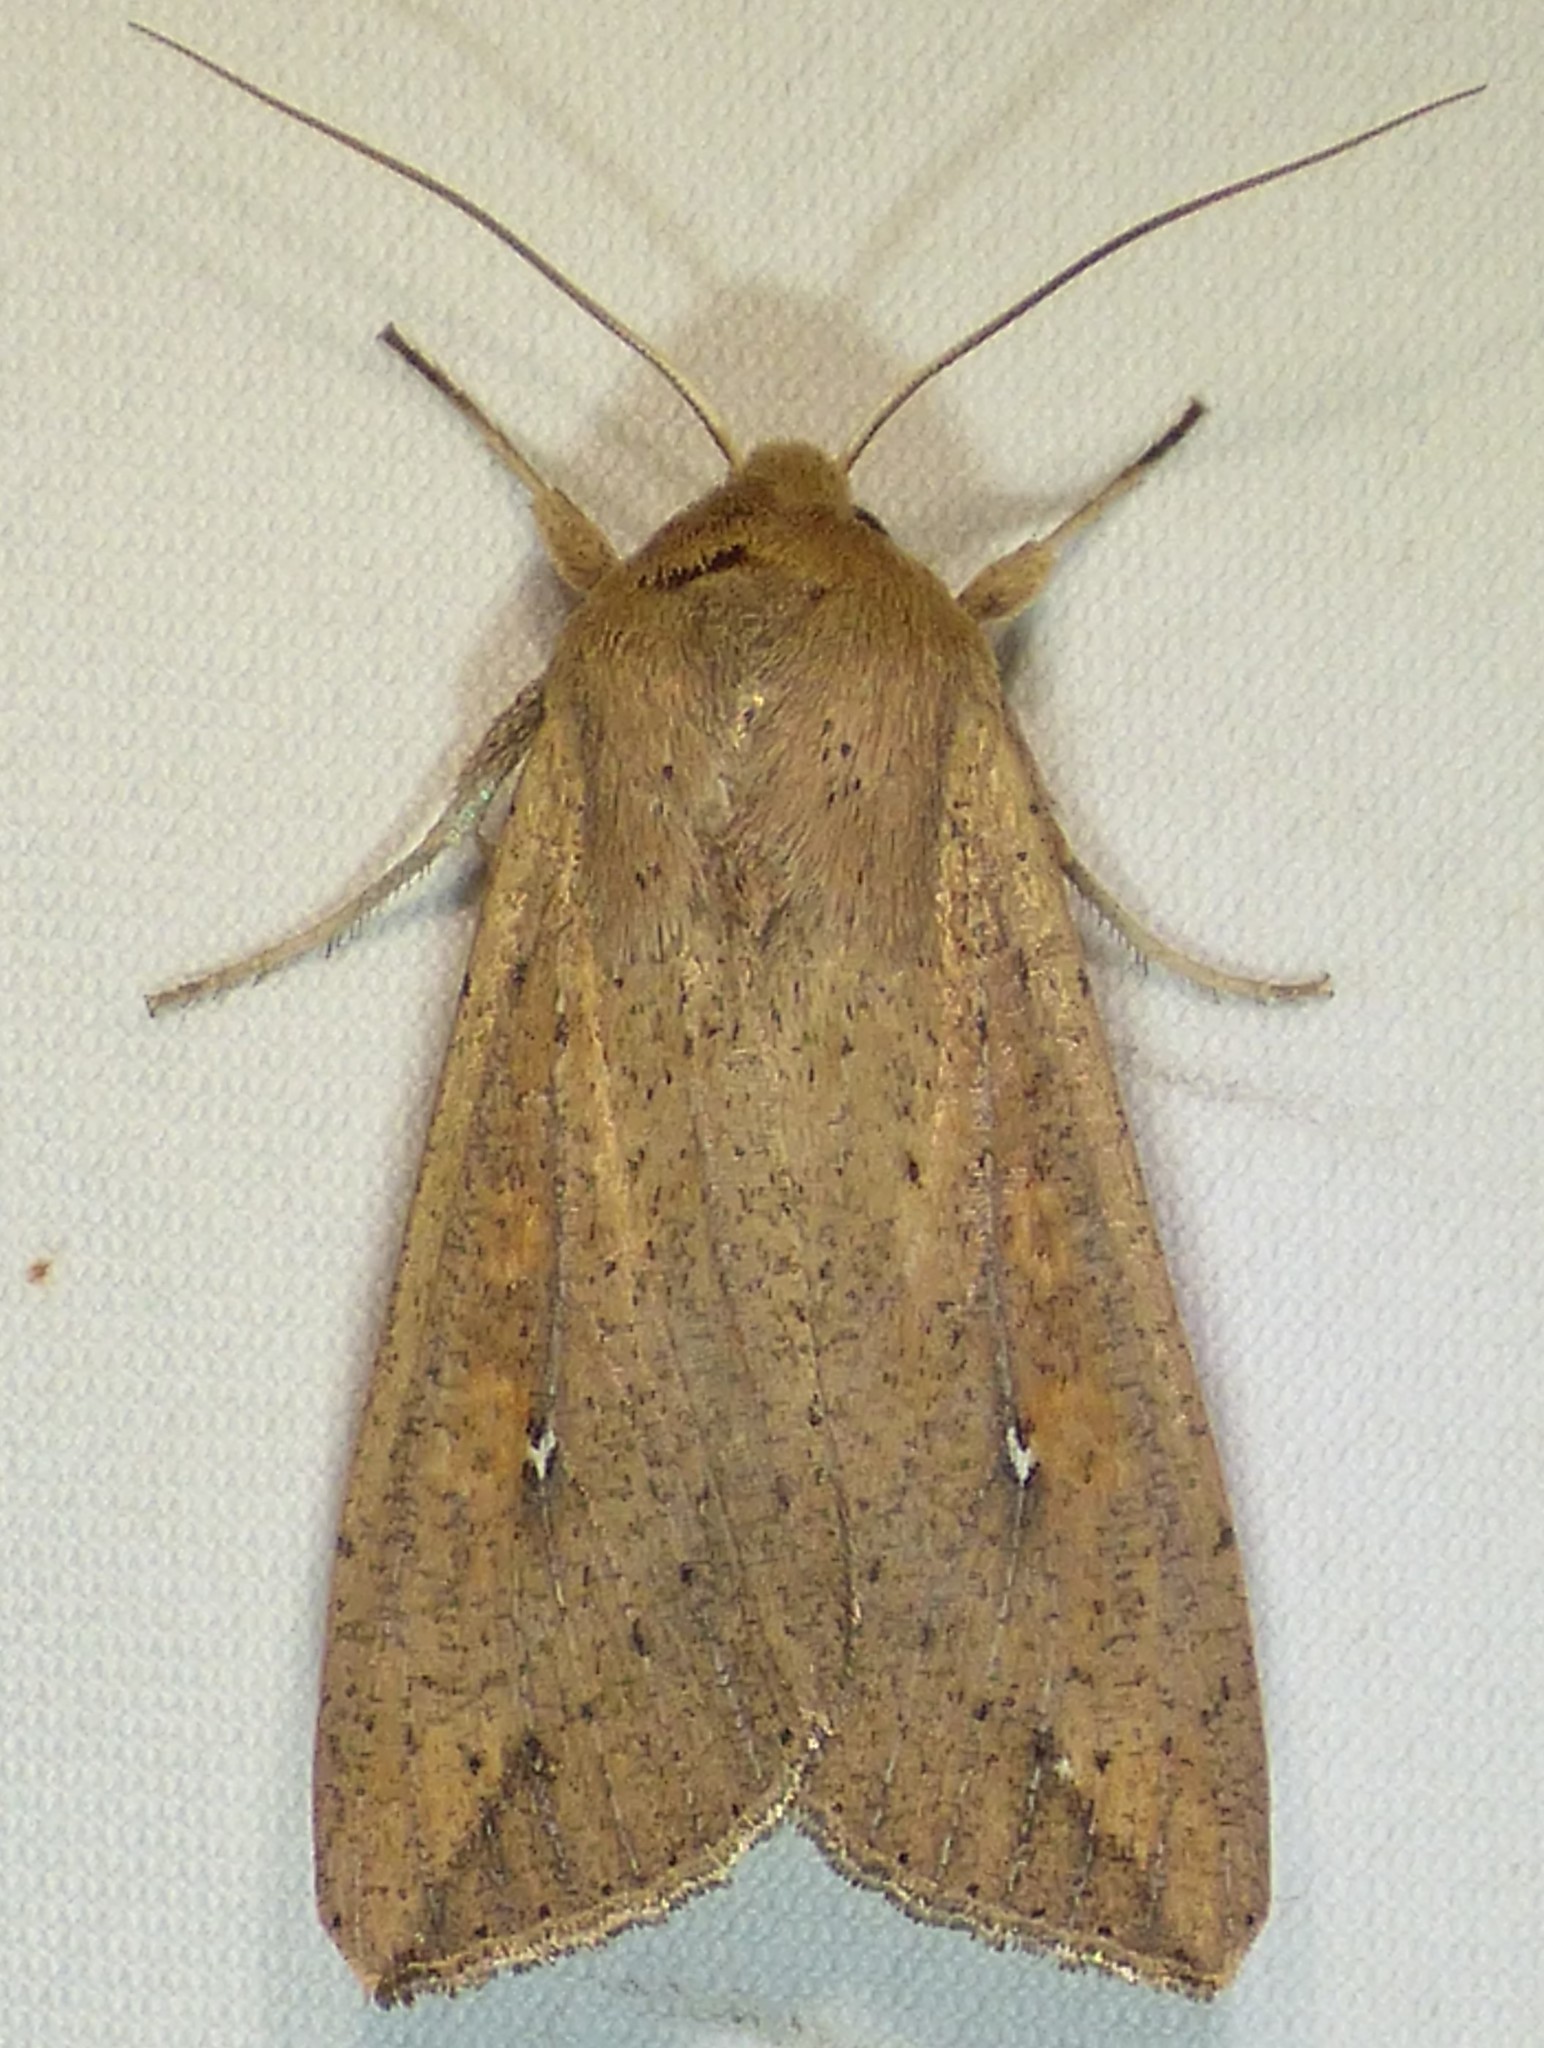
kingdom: Animalia
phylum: Arthropoda
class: Insecta
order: Lepidoptera
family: Noctuidae
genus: Mythimna
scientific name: Mythimna unipuncta
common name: White-speck
